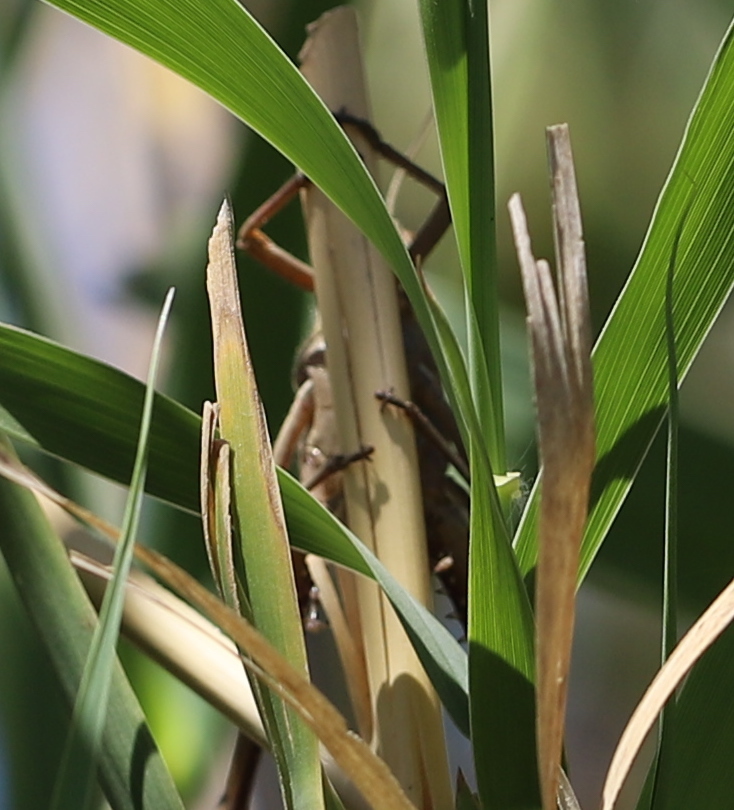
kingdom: Animalia
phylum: Arthropoda
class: Insecta
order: Orthoptera
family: Acrididae
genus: Schistocerca
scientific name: Schistocerca cancellata
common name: South american locust
